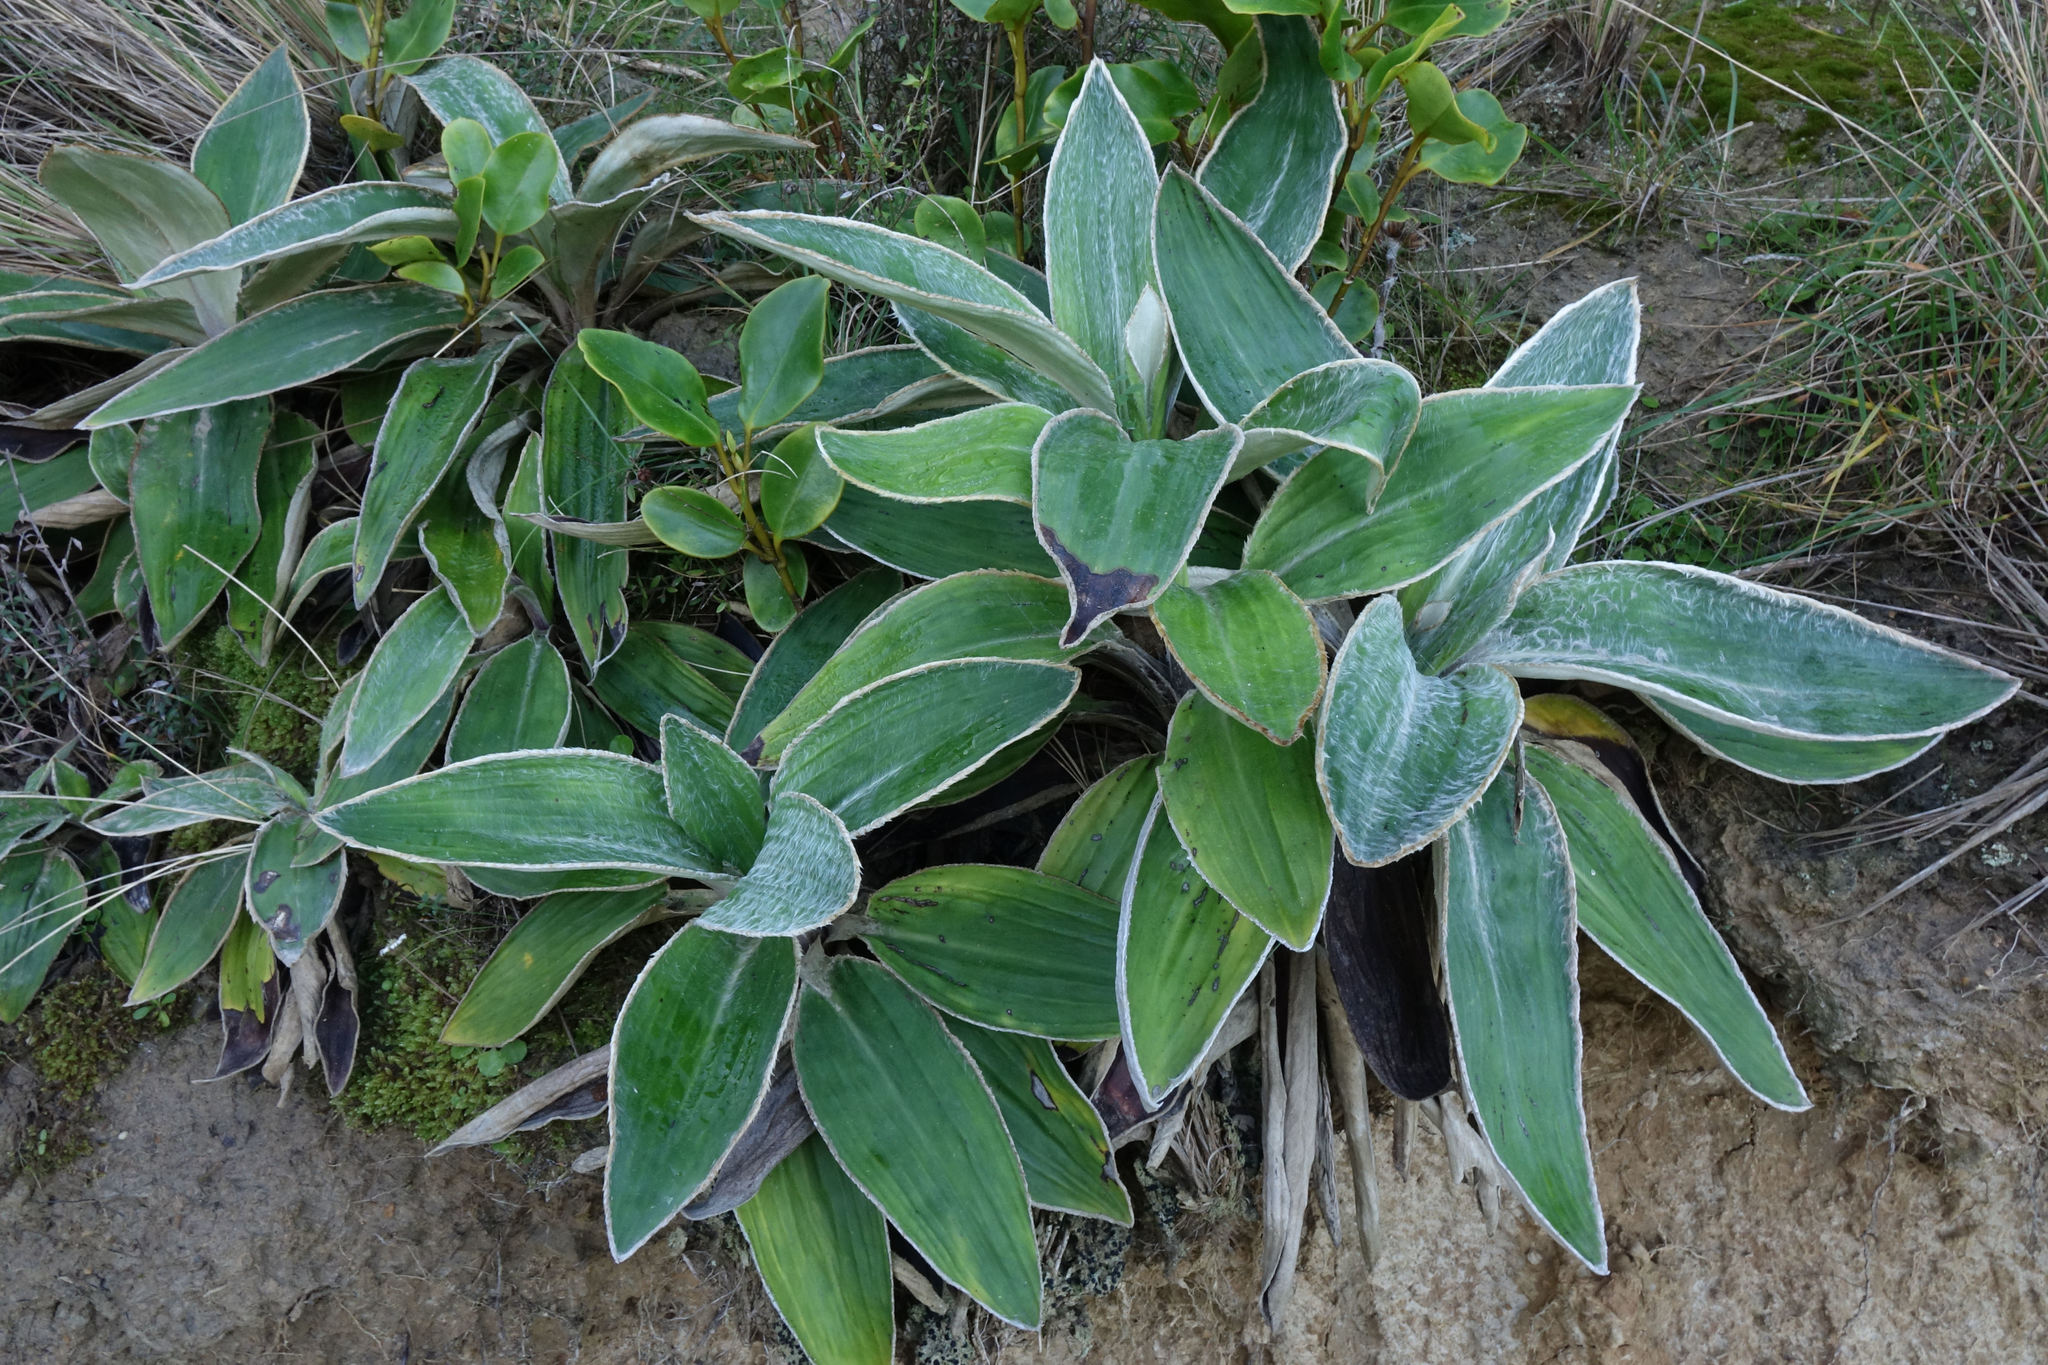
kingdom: Plantae
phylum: Tracheophyta
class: Magnoliopsida
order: Asterales
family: Asteraceae
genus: Celmisia
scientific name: Celmisia hookeri
